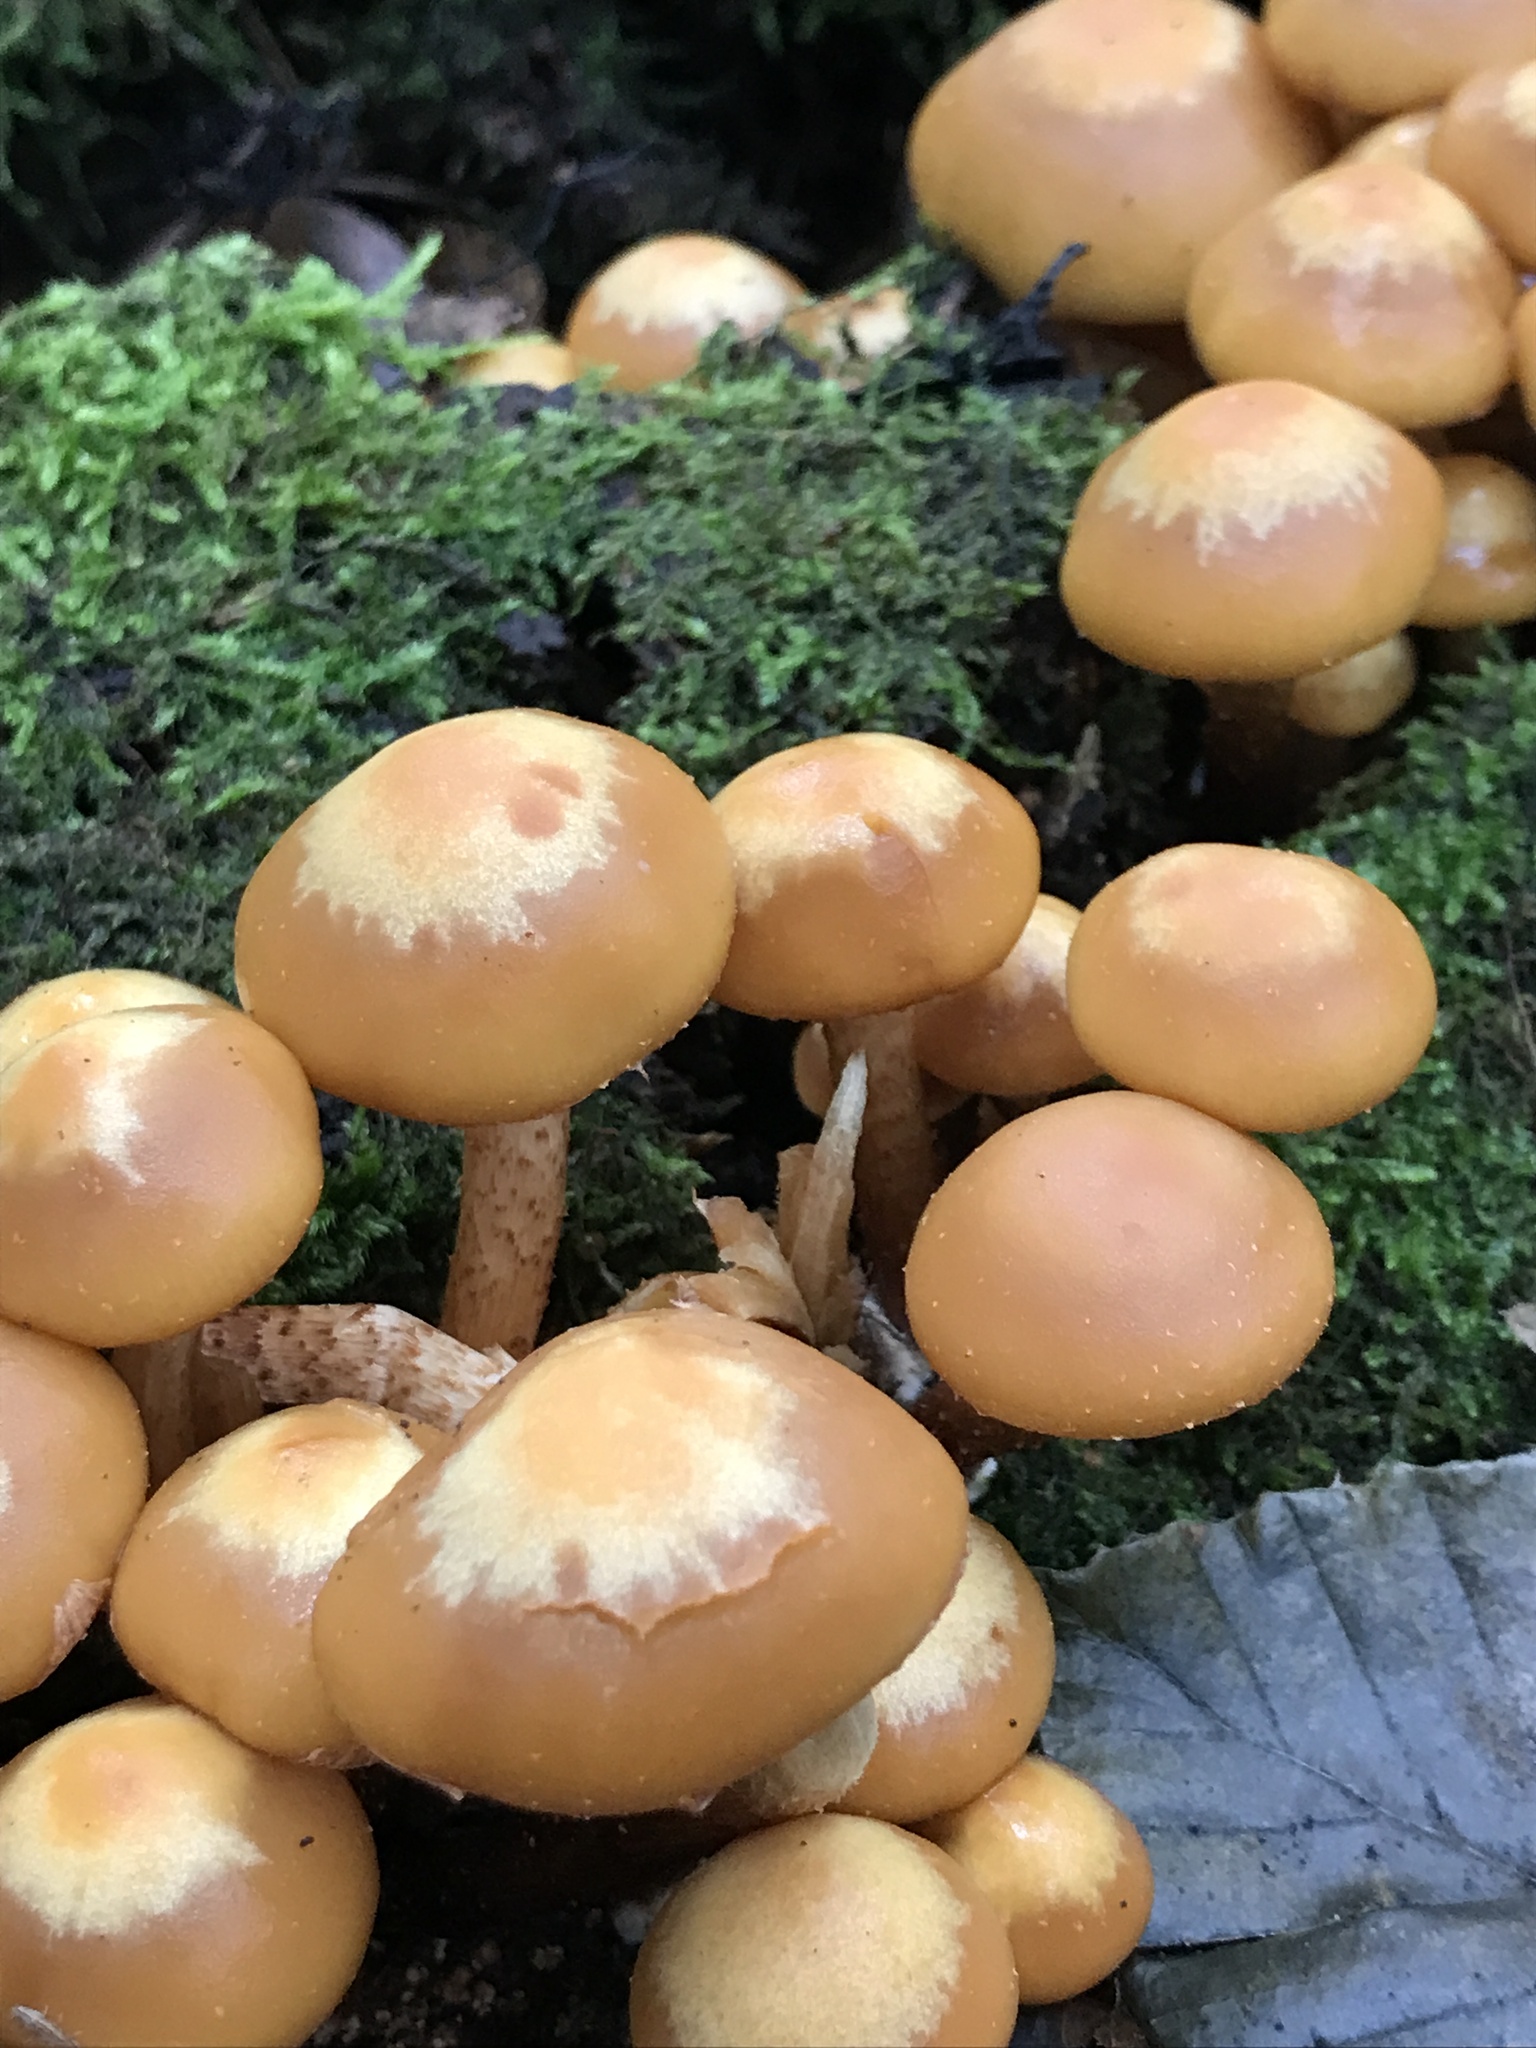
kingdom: Fungi
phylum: Basidiomycota
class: Agaricomycetes
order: Agaricales
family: Strophariaceae
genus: Kuehneromyces
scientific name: Kuehneromyces mutabilis
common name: Sheathed woodtuft
